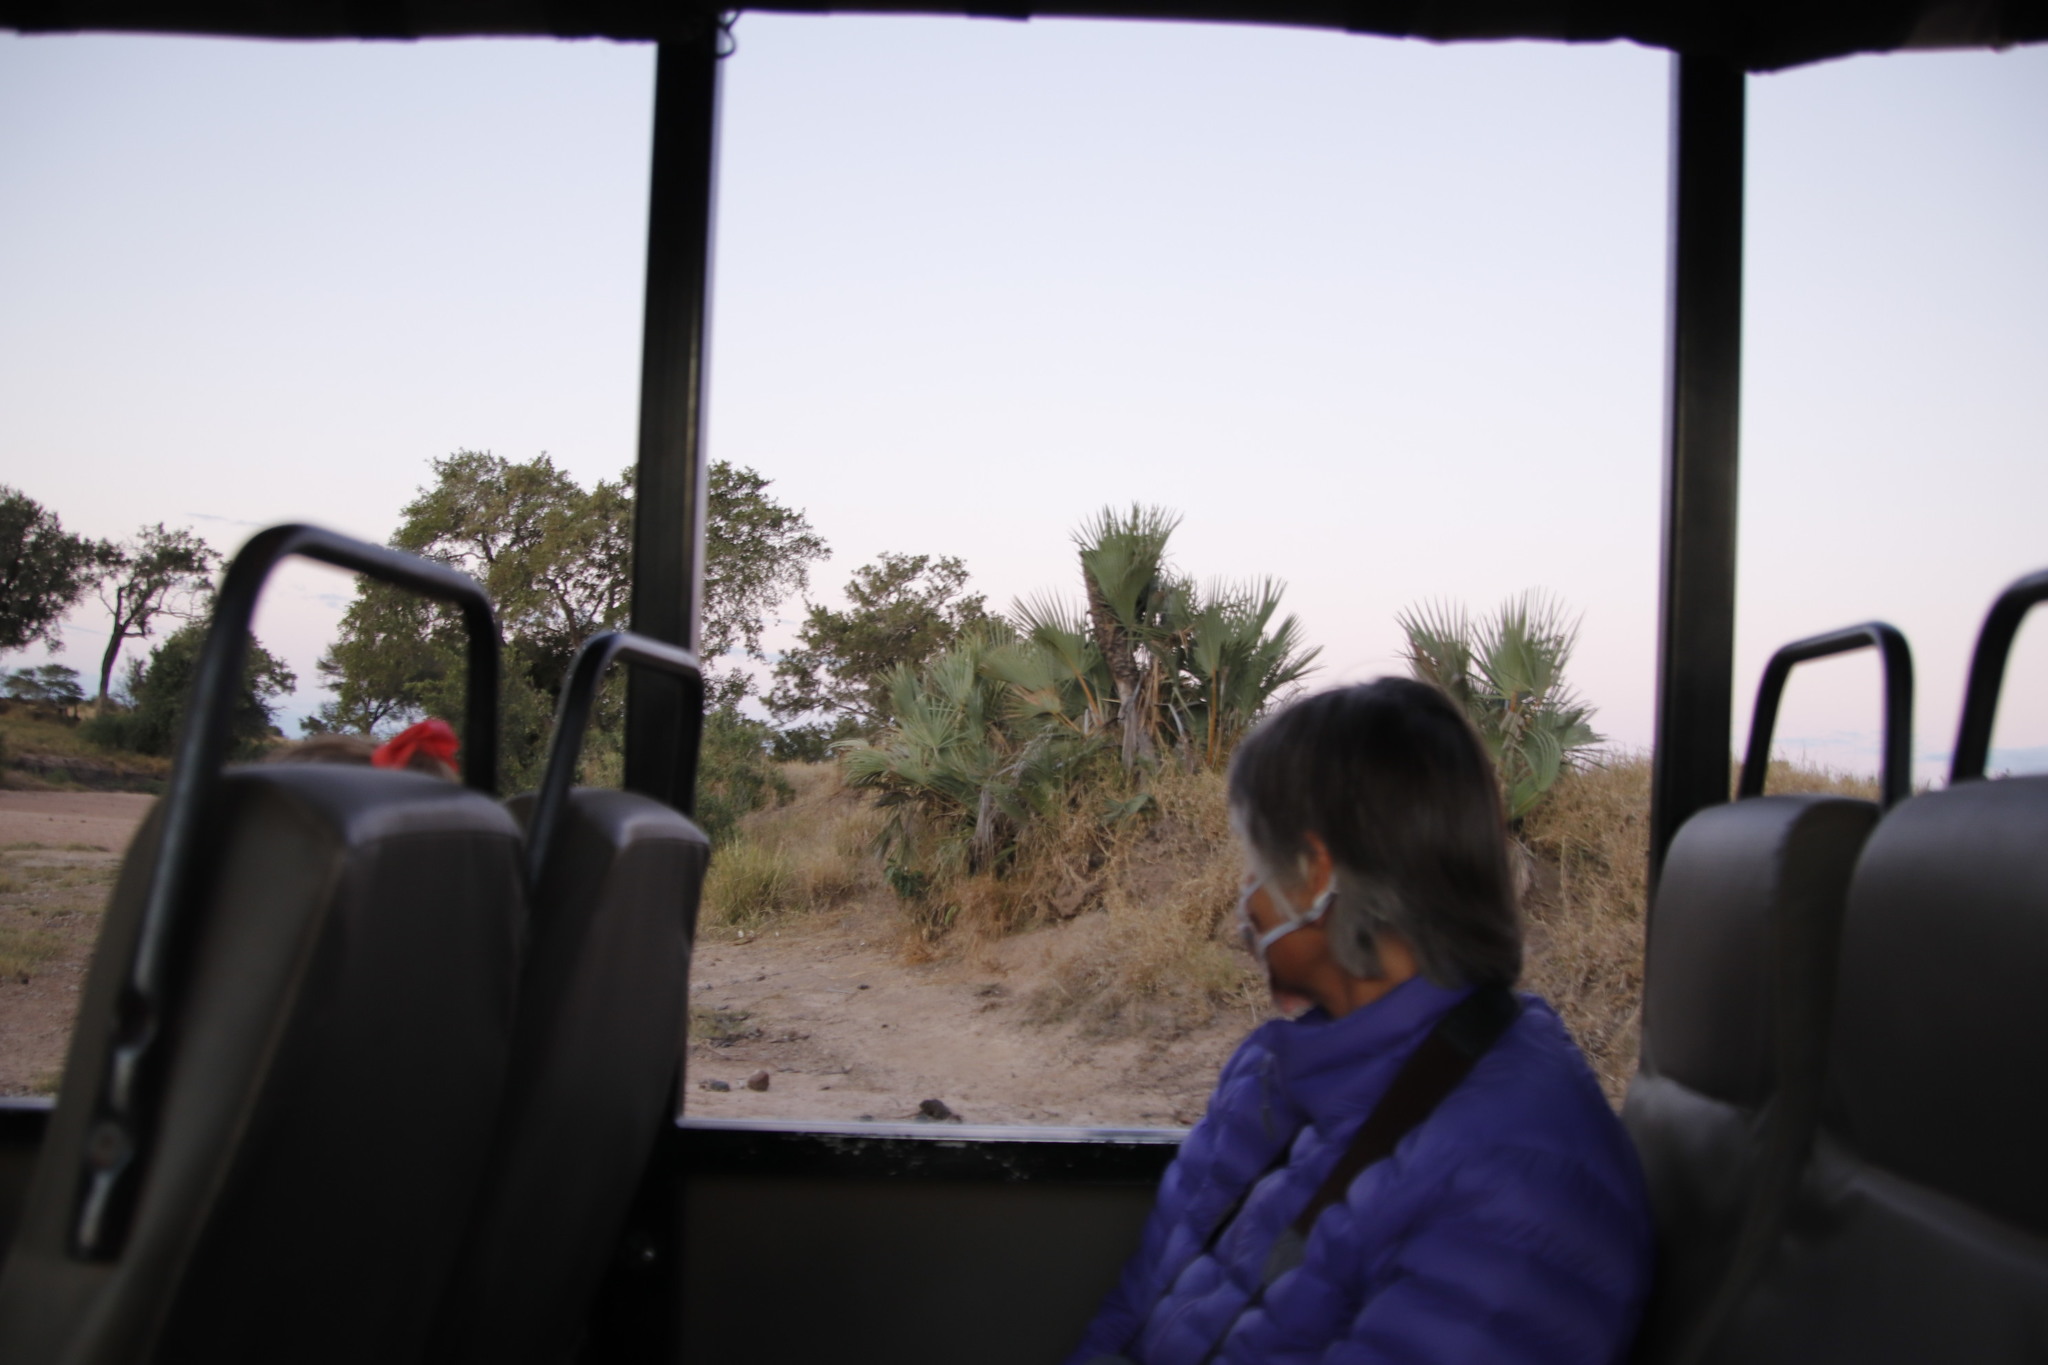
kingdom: Plantae
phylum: Tracheophyta
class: Liliopsida
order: Arecales
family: Arecaceae
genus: Hyphaene
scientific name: Hyphaene coriacea
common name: Ilala palm
